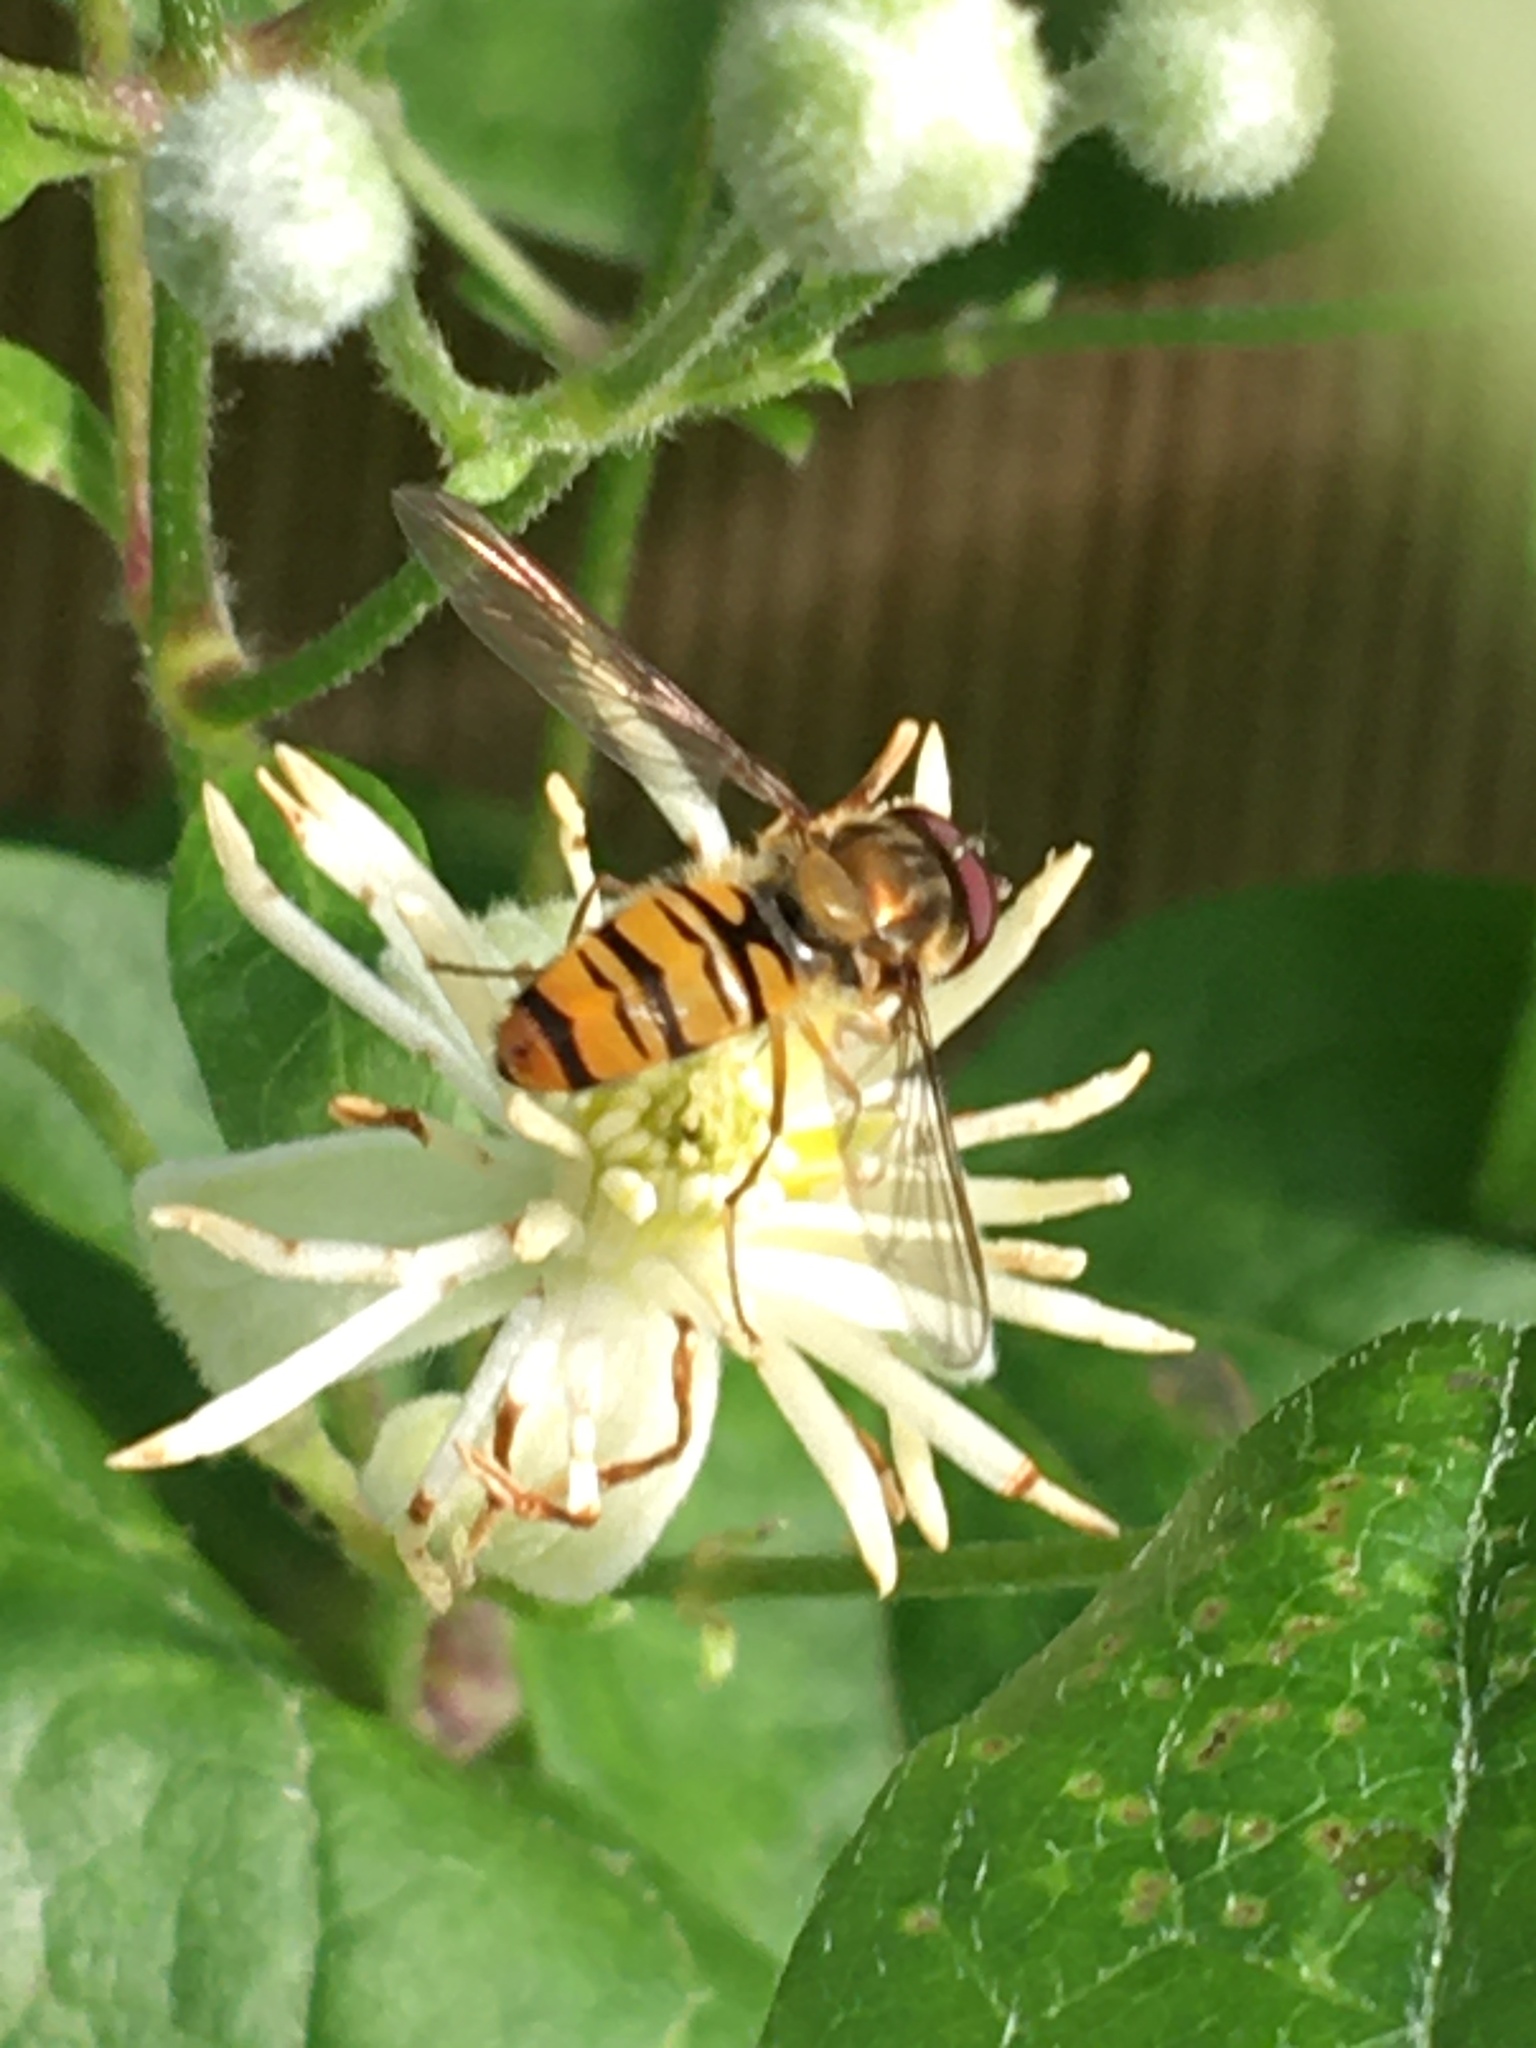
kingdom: Animalia
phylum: Arthropoda
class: Insecta
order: Diptera
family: Syrphidae
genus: Episyrphus
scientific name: Episyrphus balteatus
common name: Marmalade hoverfly
